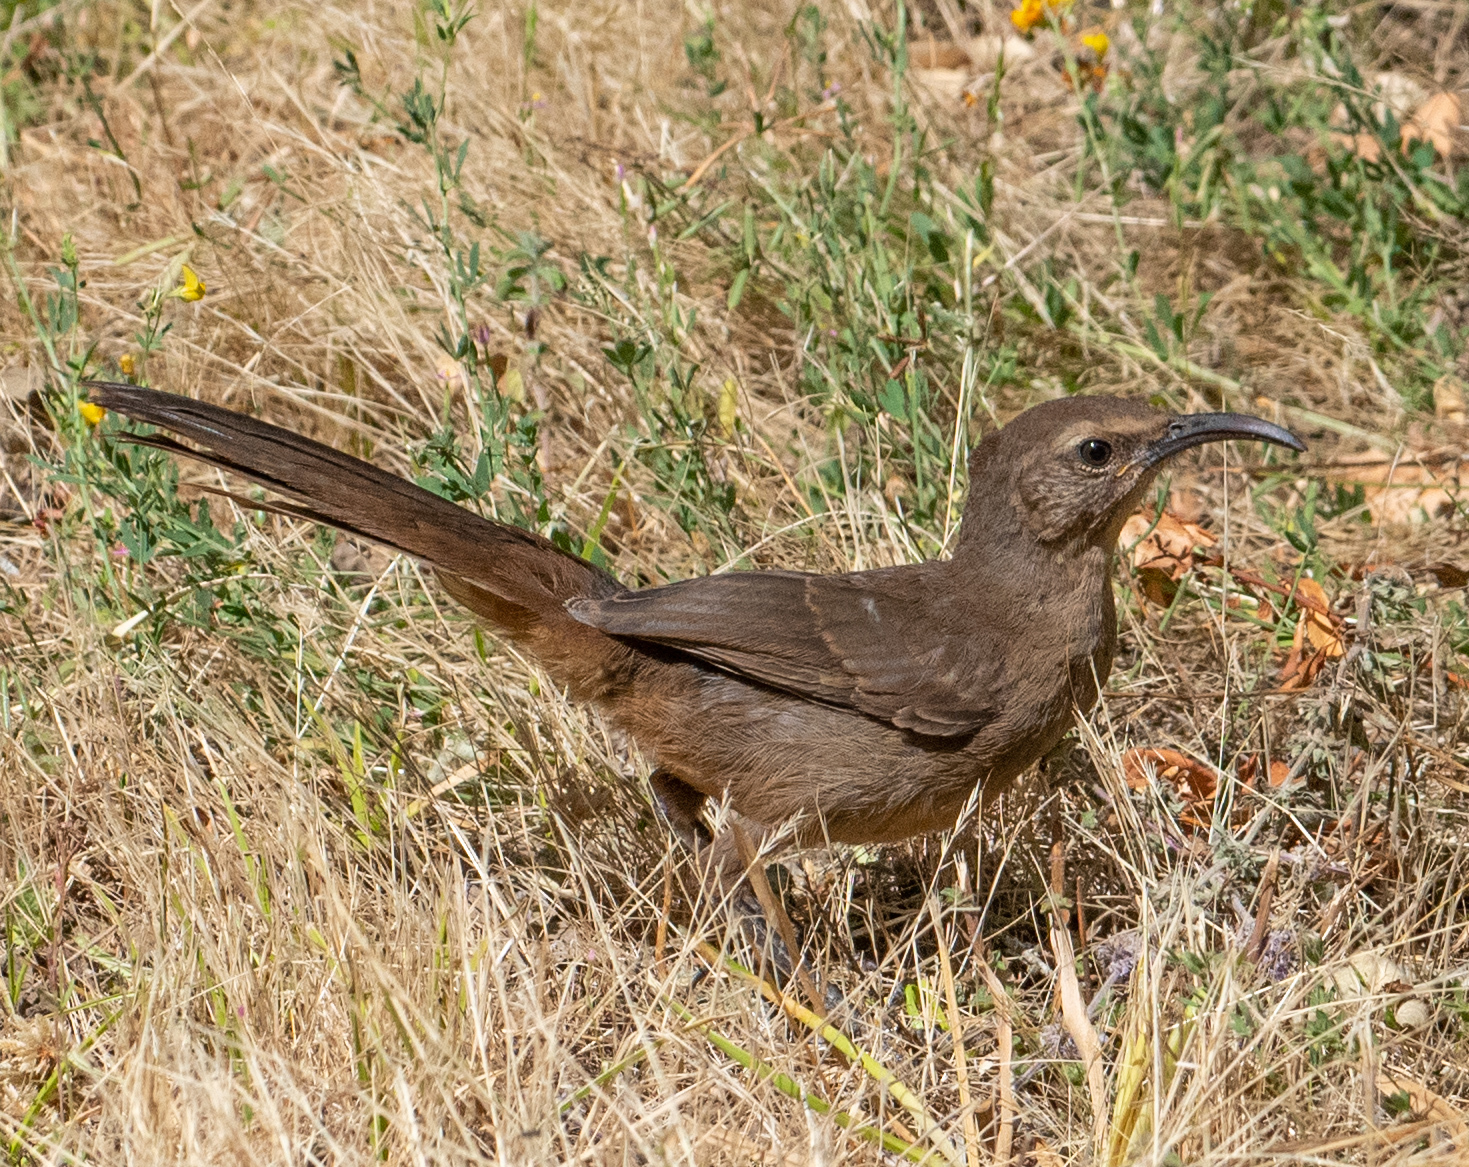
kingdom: Animalia
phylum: Chordata
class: Aves
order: Passeriformes
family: Mimidae
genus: Toxostoma
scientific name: Toxostoma redivivum
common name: California thrasher
